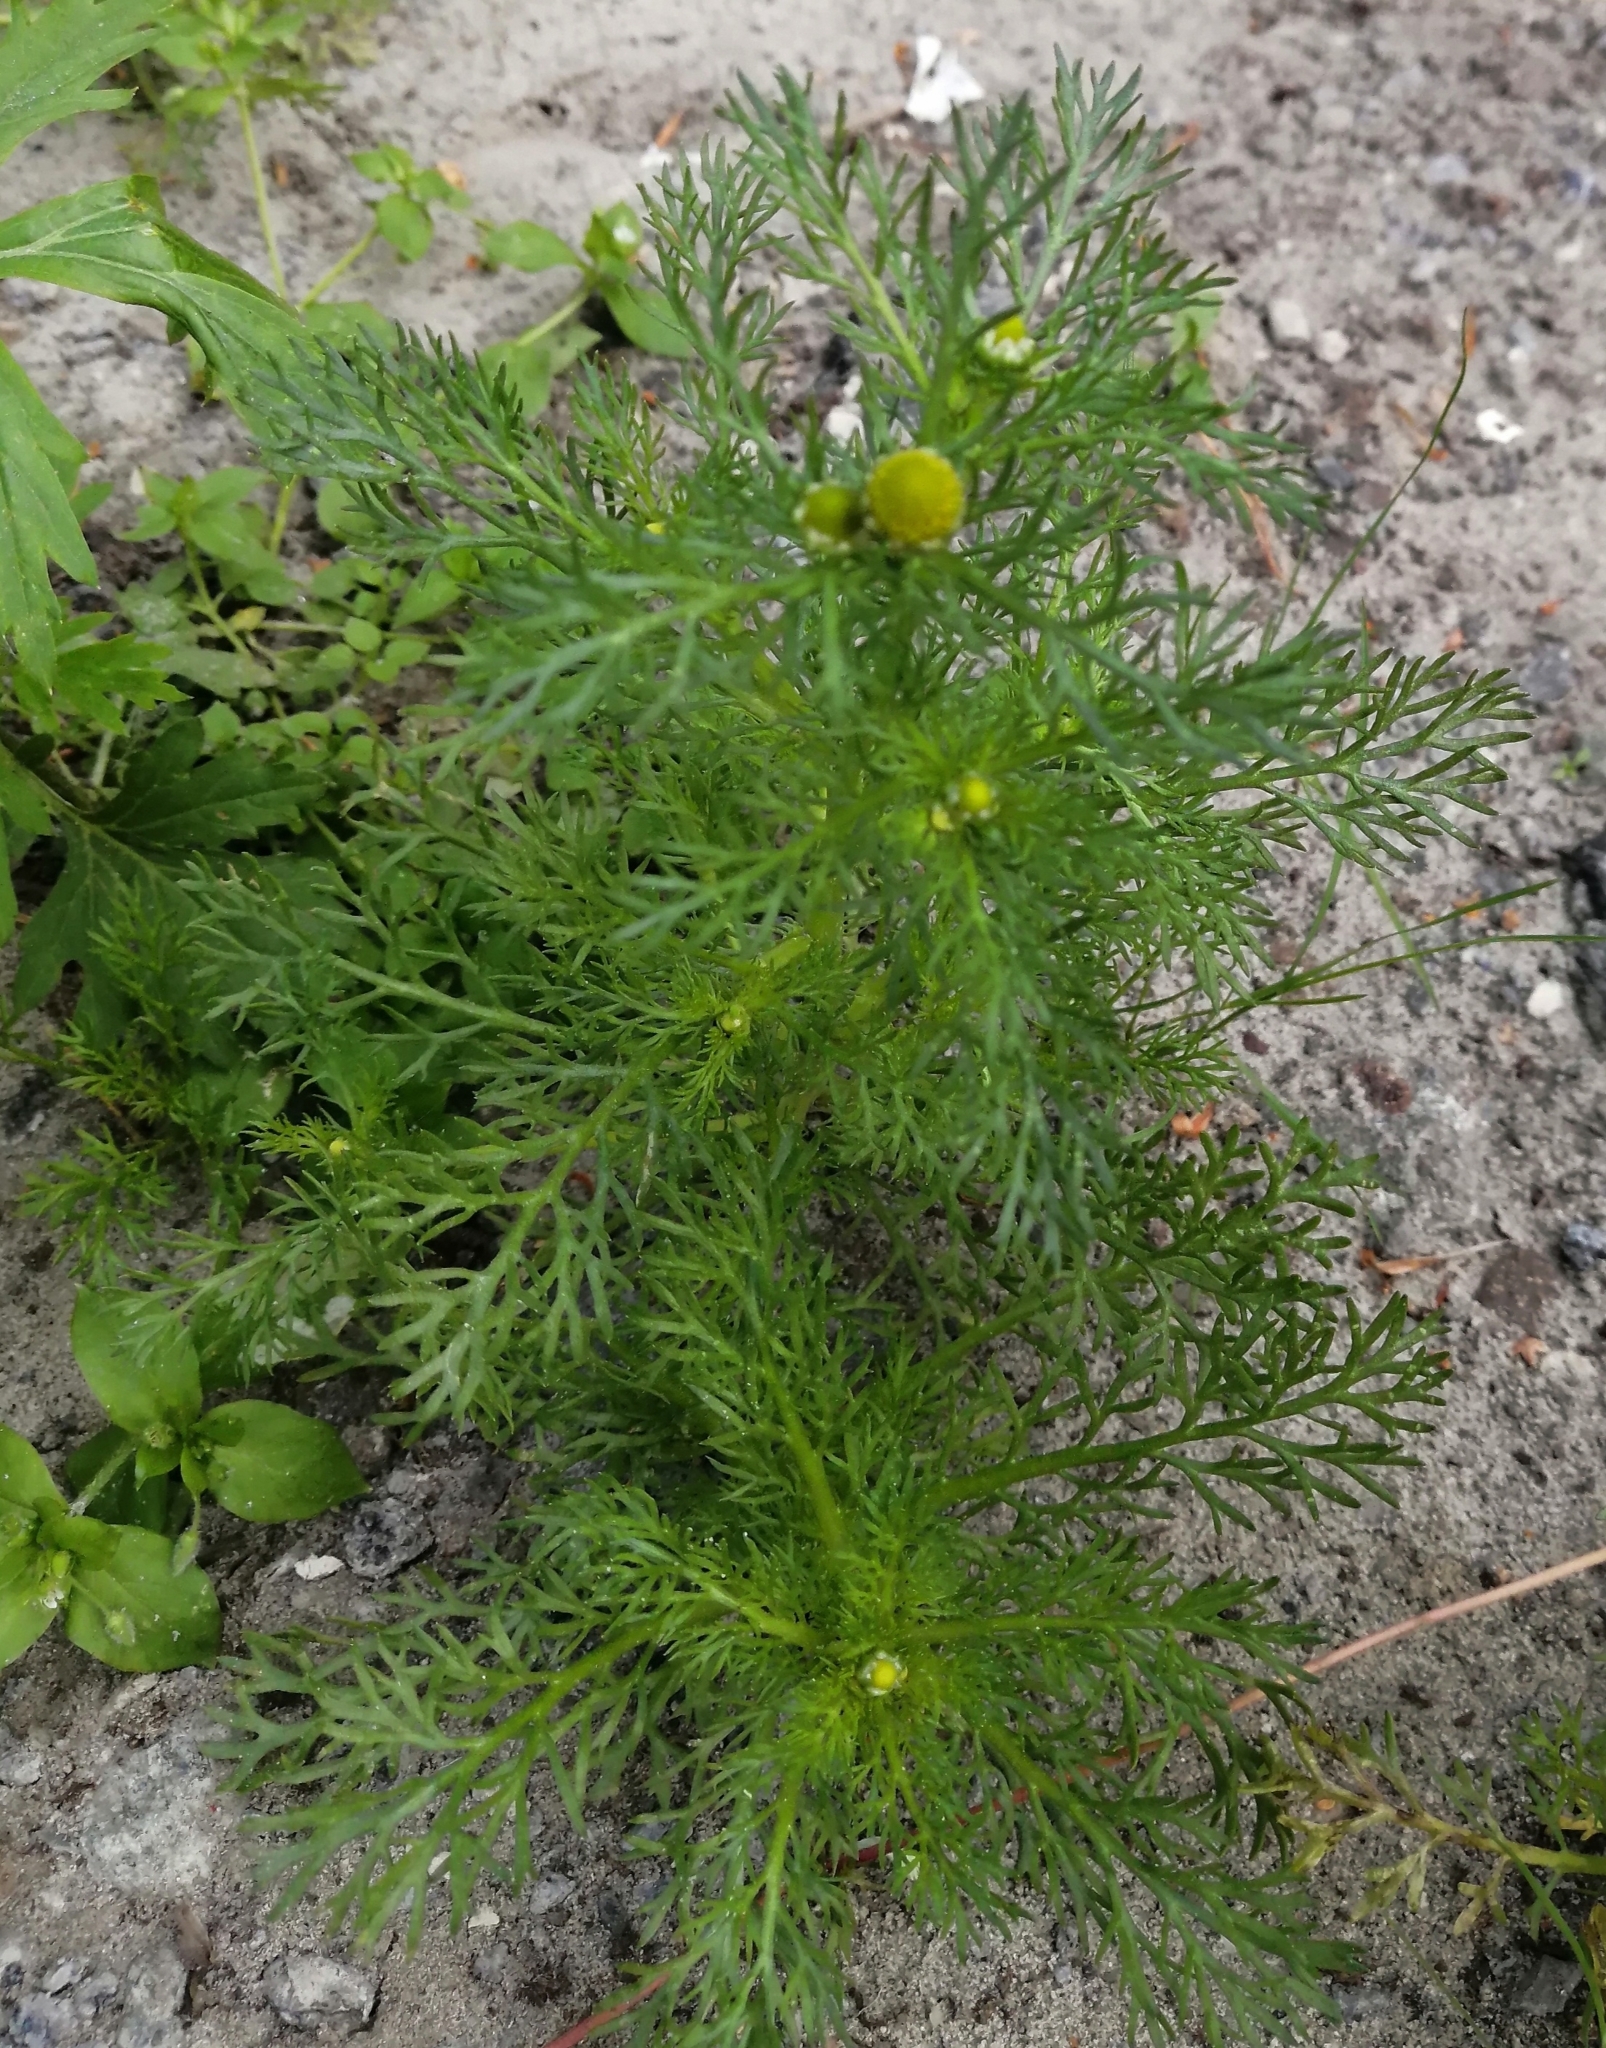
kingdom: Plantae
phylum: Tracheophyta
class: Magnoliopsida
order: Asterales
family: Asteraceae
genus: Matricaria
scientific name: Matricaria discoidea
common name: Disc mayweed
